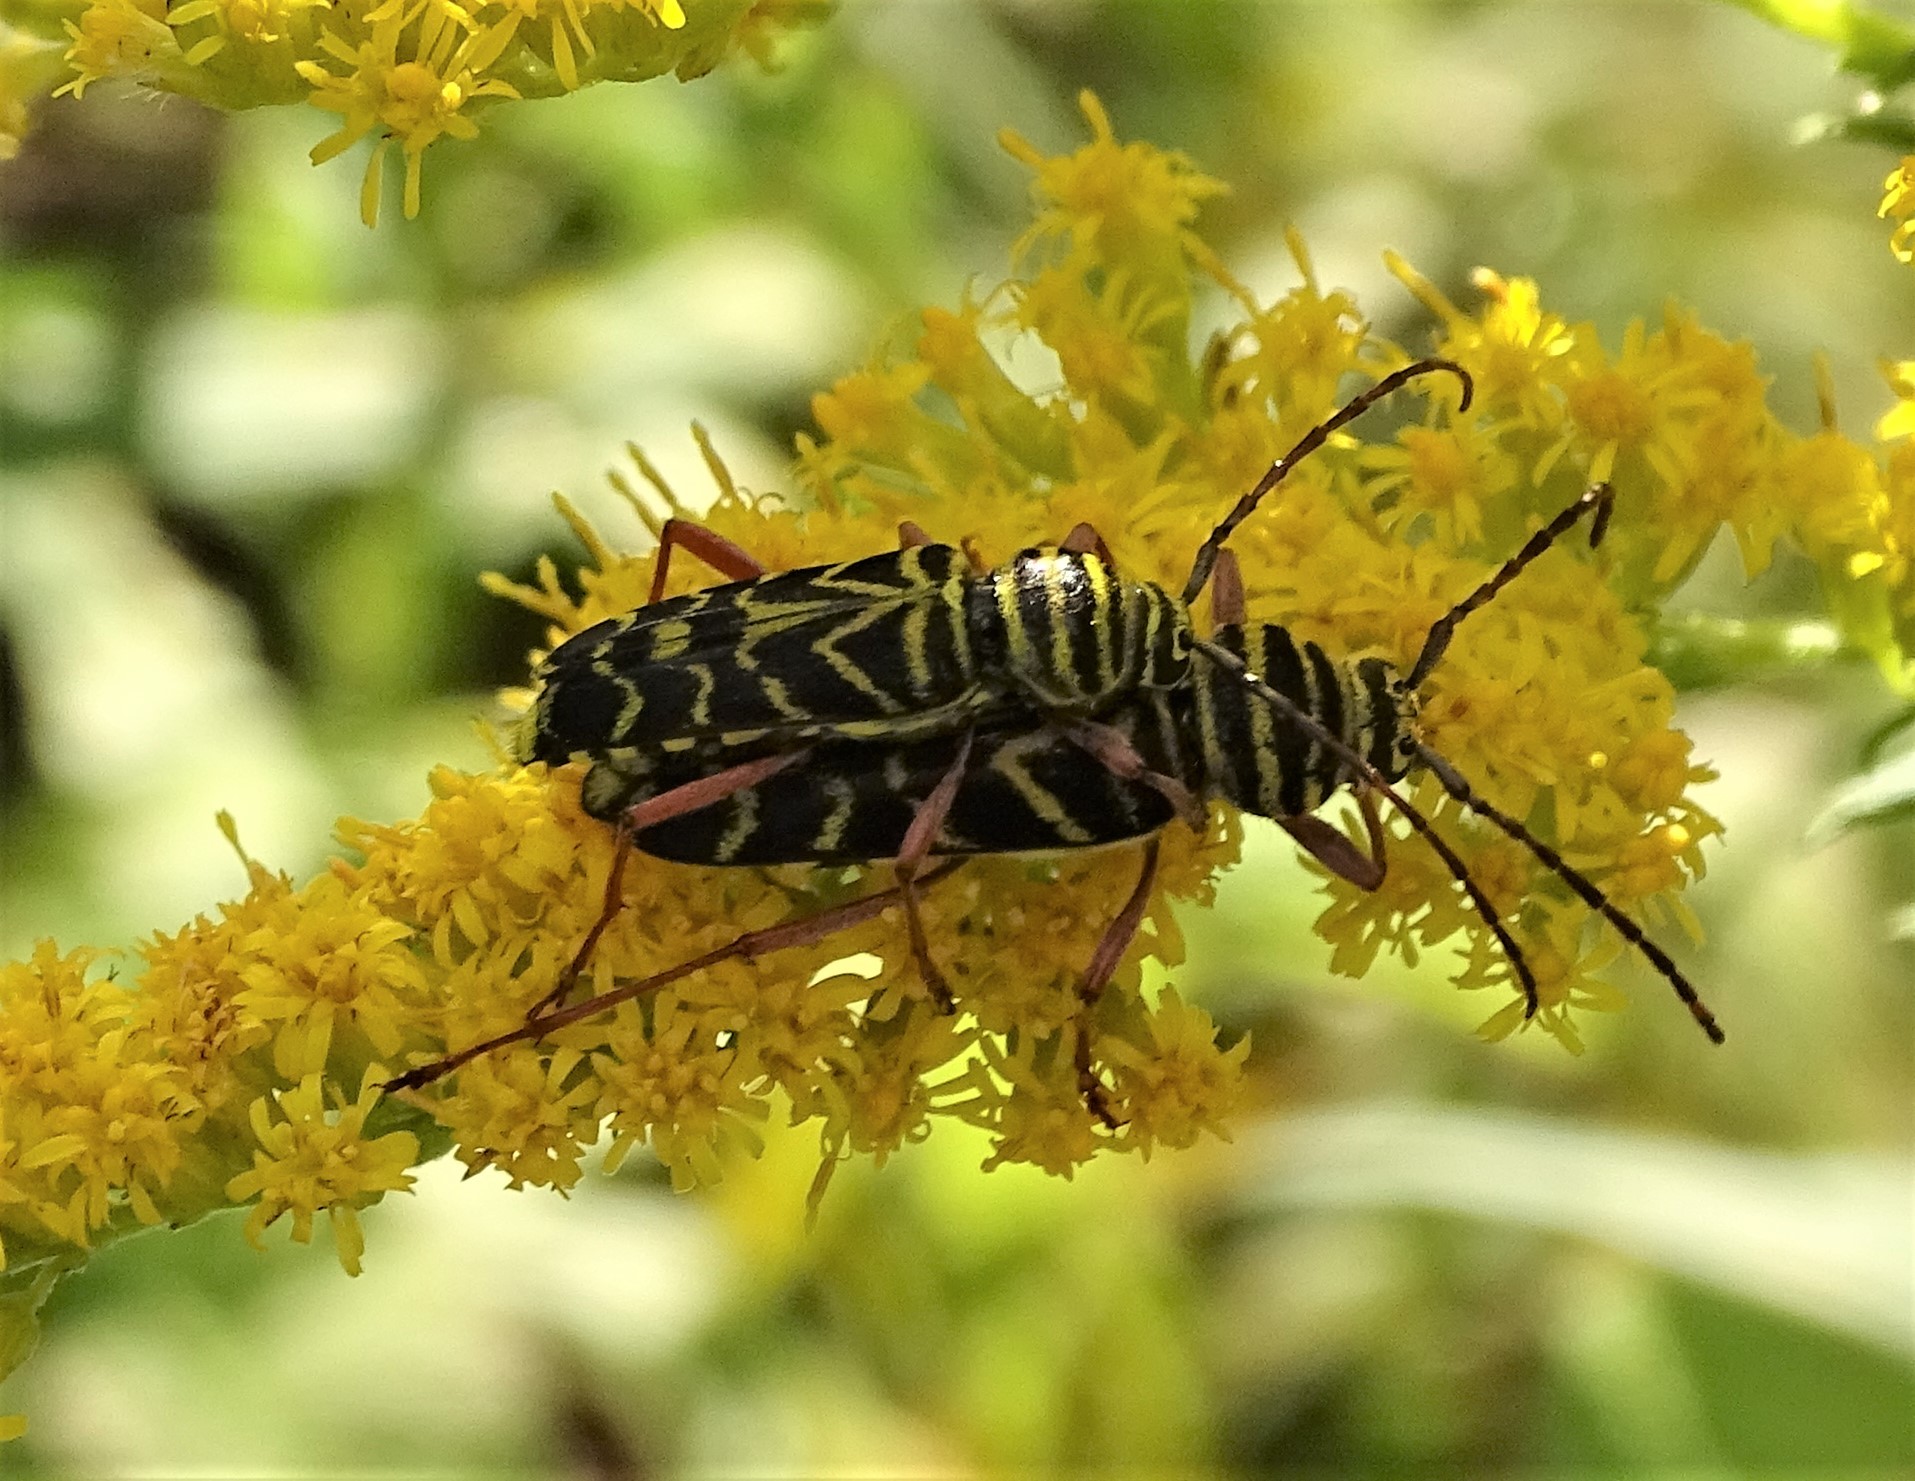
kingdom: Animalia
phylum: Arthropoda
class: Insecta
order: Coleoptera
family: Cerambycidae
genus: Megacyllene
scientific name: Megacyllene robiniae
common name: Locust borer
